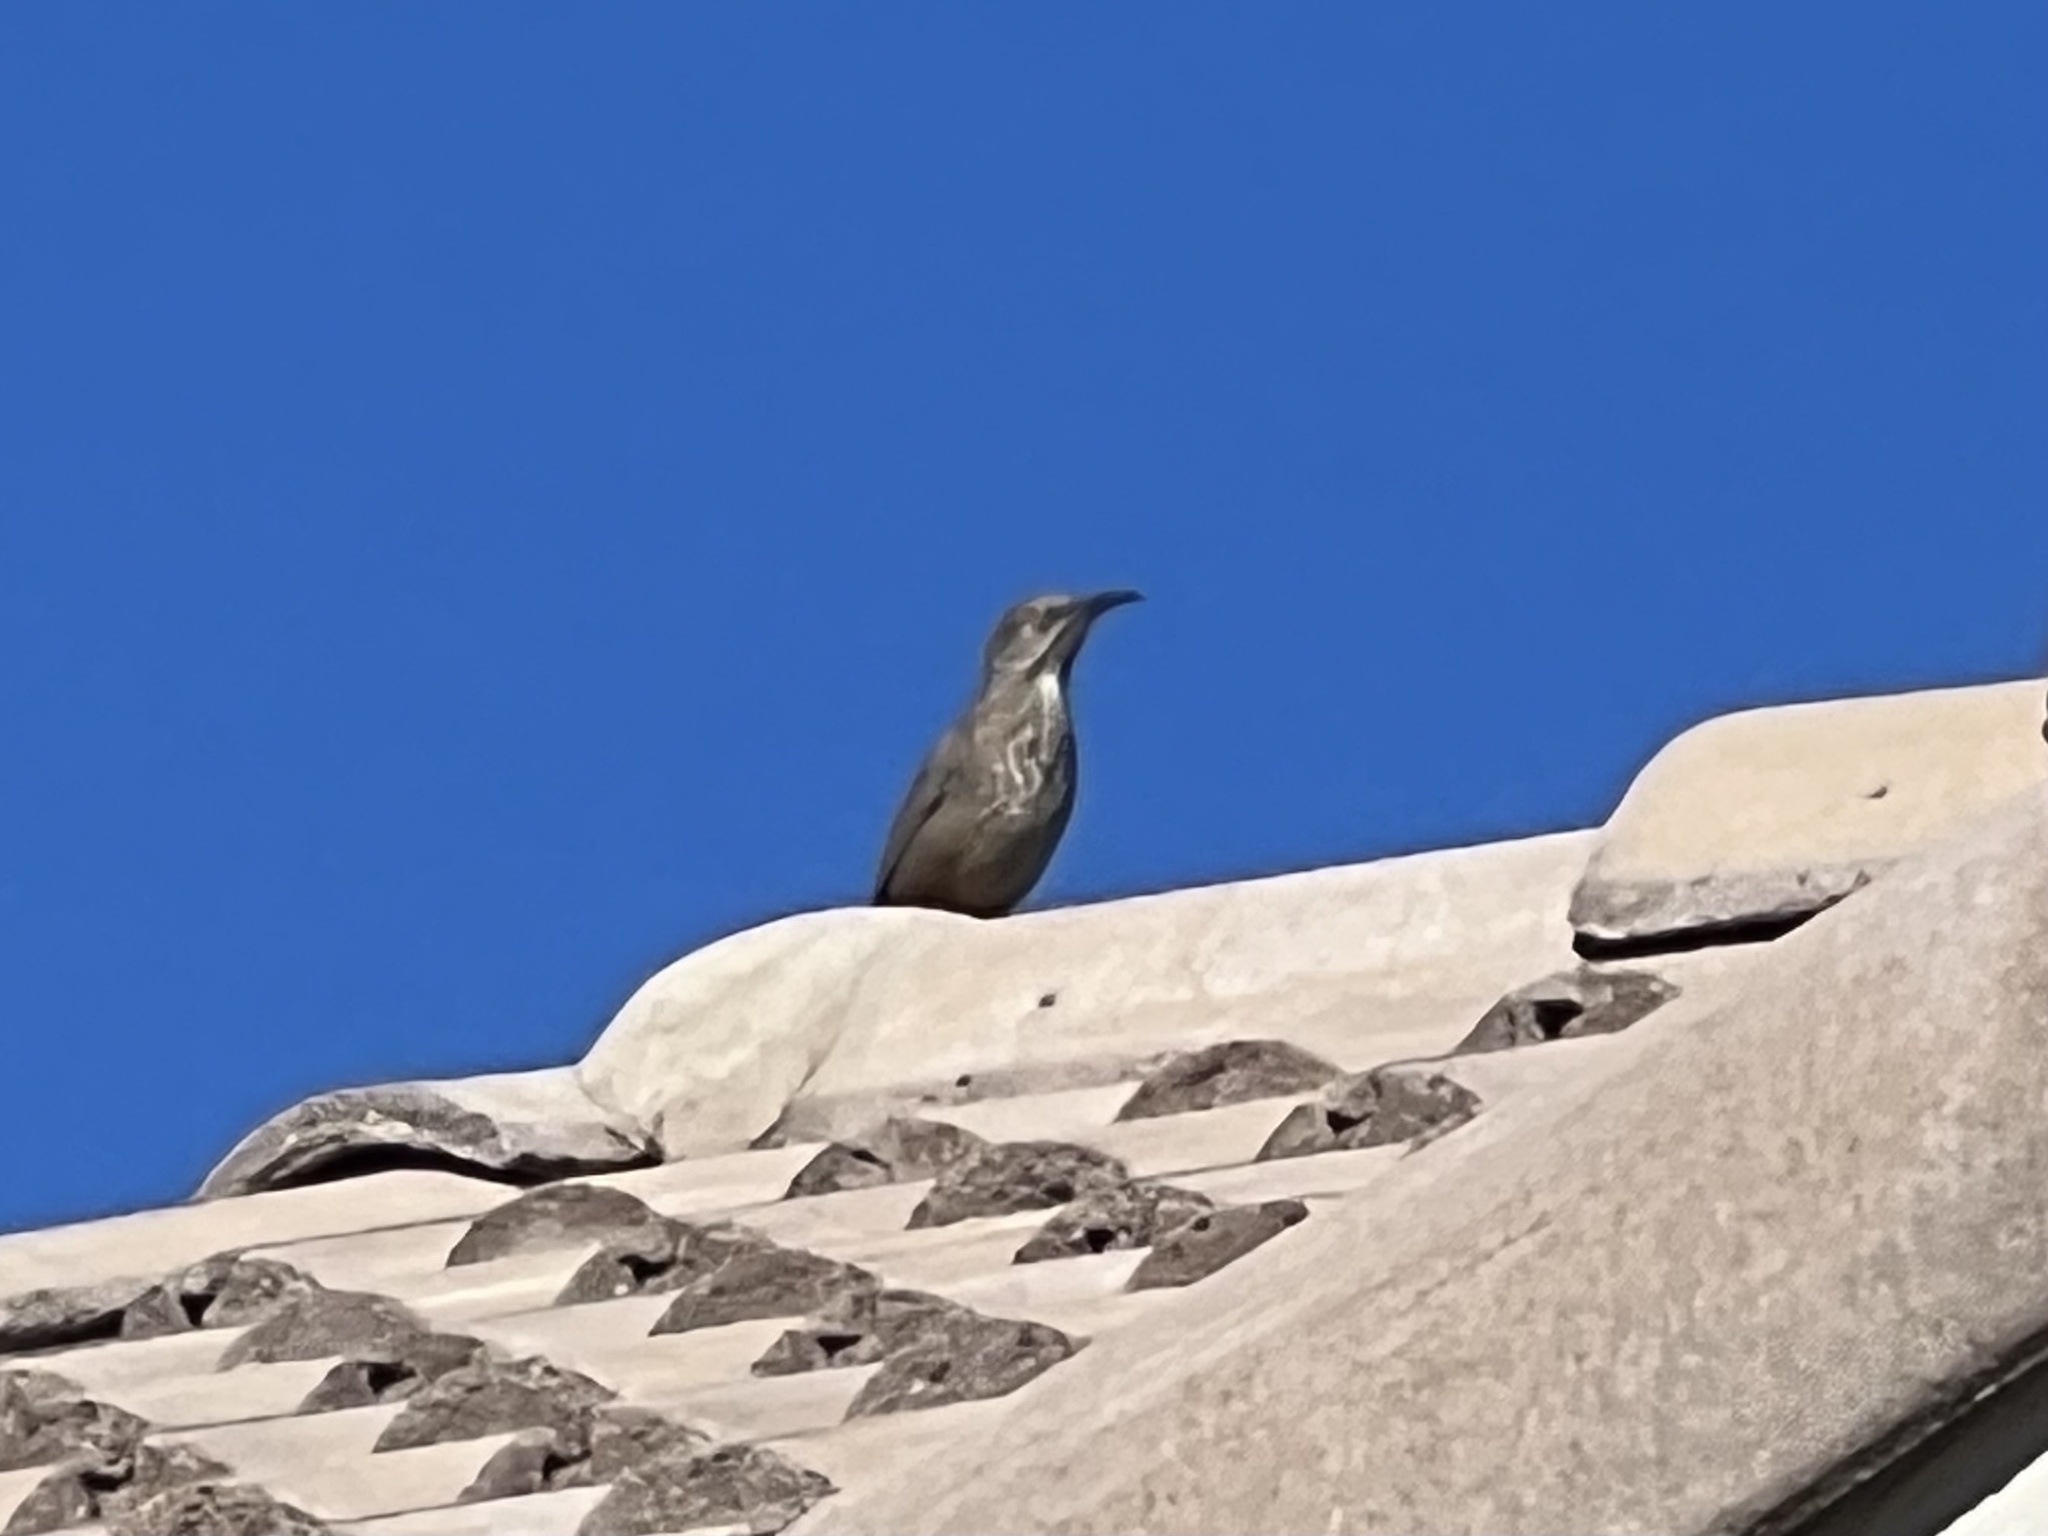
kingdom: Animalia
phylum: Chordata
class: Aves
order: Passeriformes
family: Mimidae
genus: Toxostoma
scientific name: Toxostoma curvirostre
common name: Curve-billed thrasher
